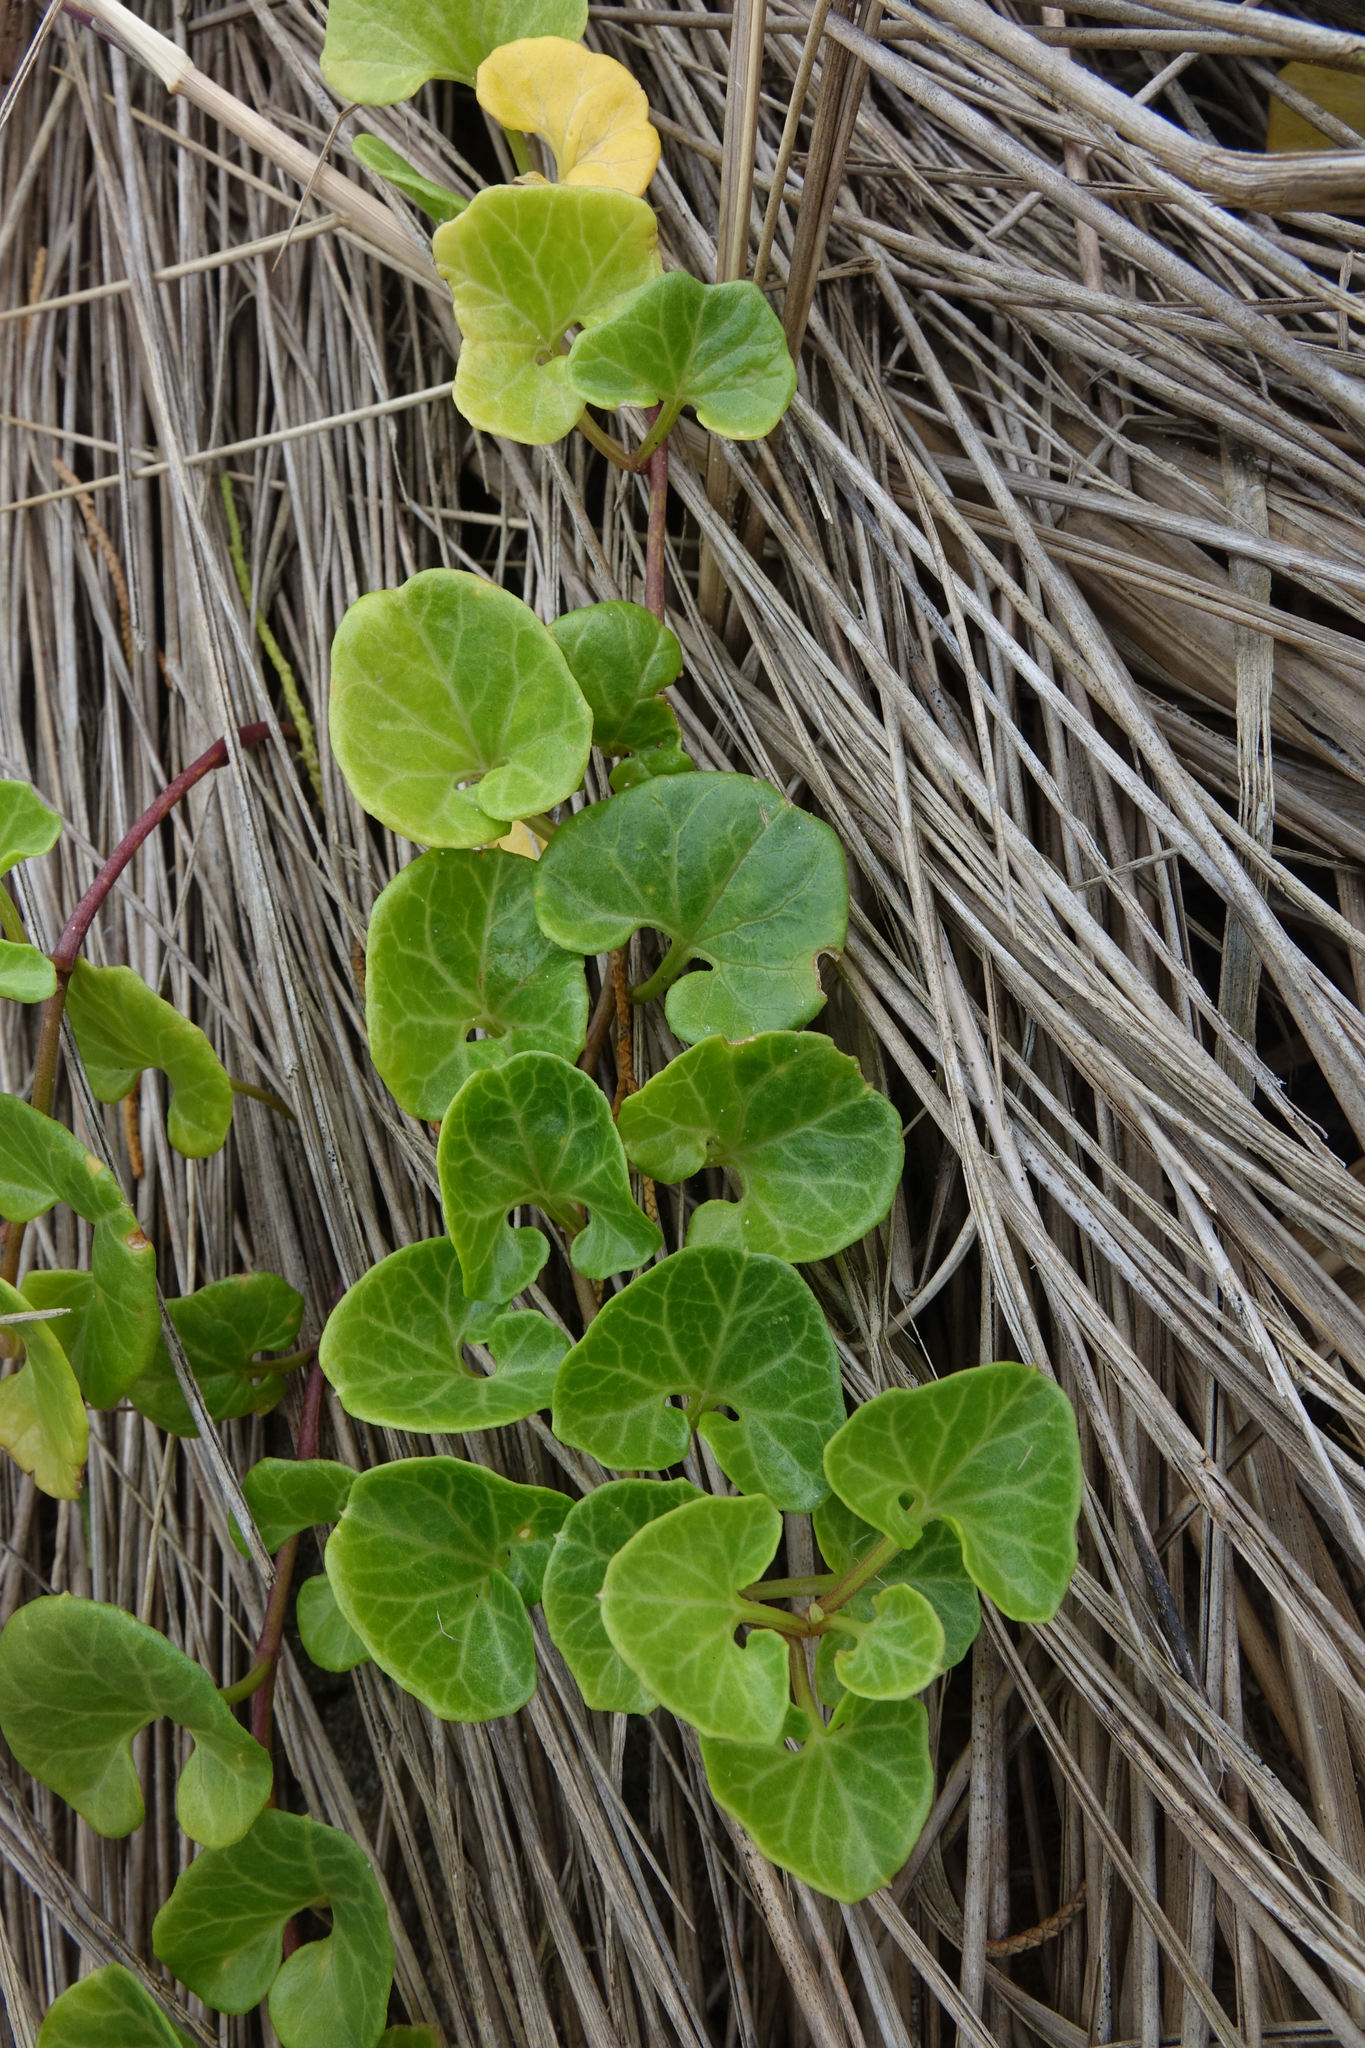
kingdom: Plantae
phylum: Tracheophyta
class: Magnoliopsida
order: Solanales
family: Convolvulaceae
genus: Calystegia
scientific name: Calystegia soldanella
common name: Sea bindweed
